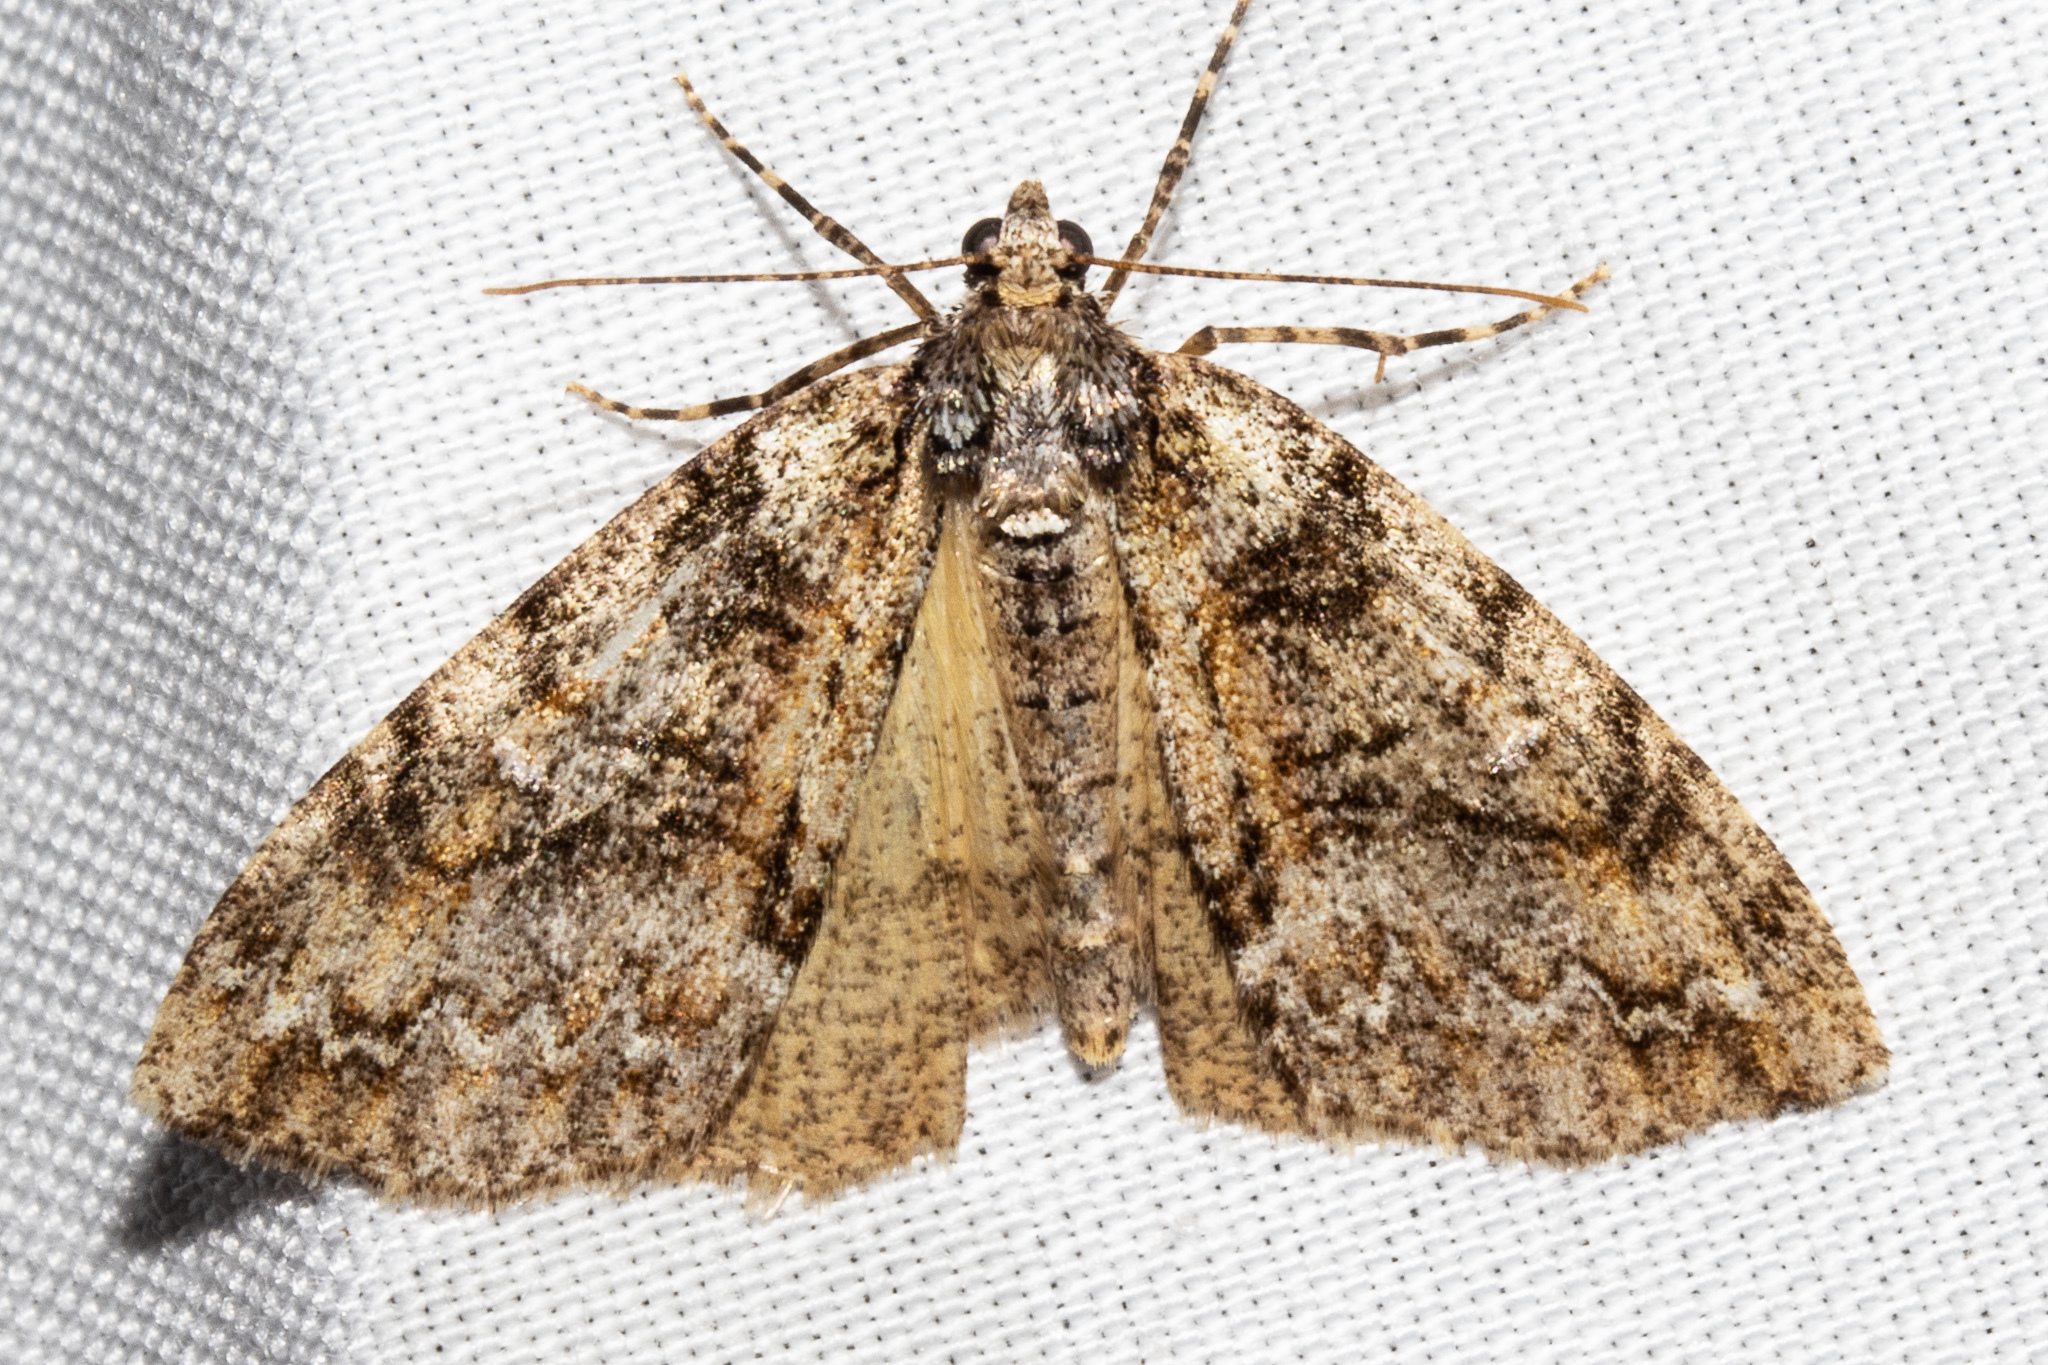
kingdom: Animalia
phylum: Arthropoda
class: Insecta
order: Lepidoptera
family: Geometridae
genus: Pseudocoremia
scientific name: Pseudocoremia suavis
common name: Common forest looper
